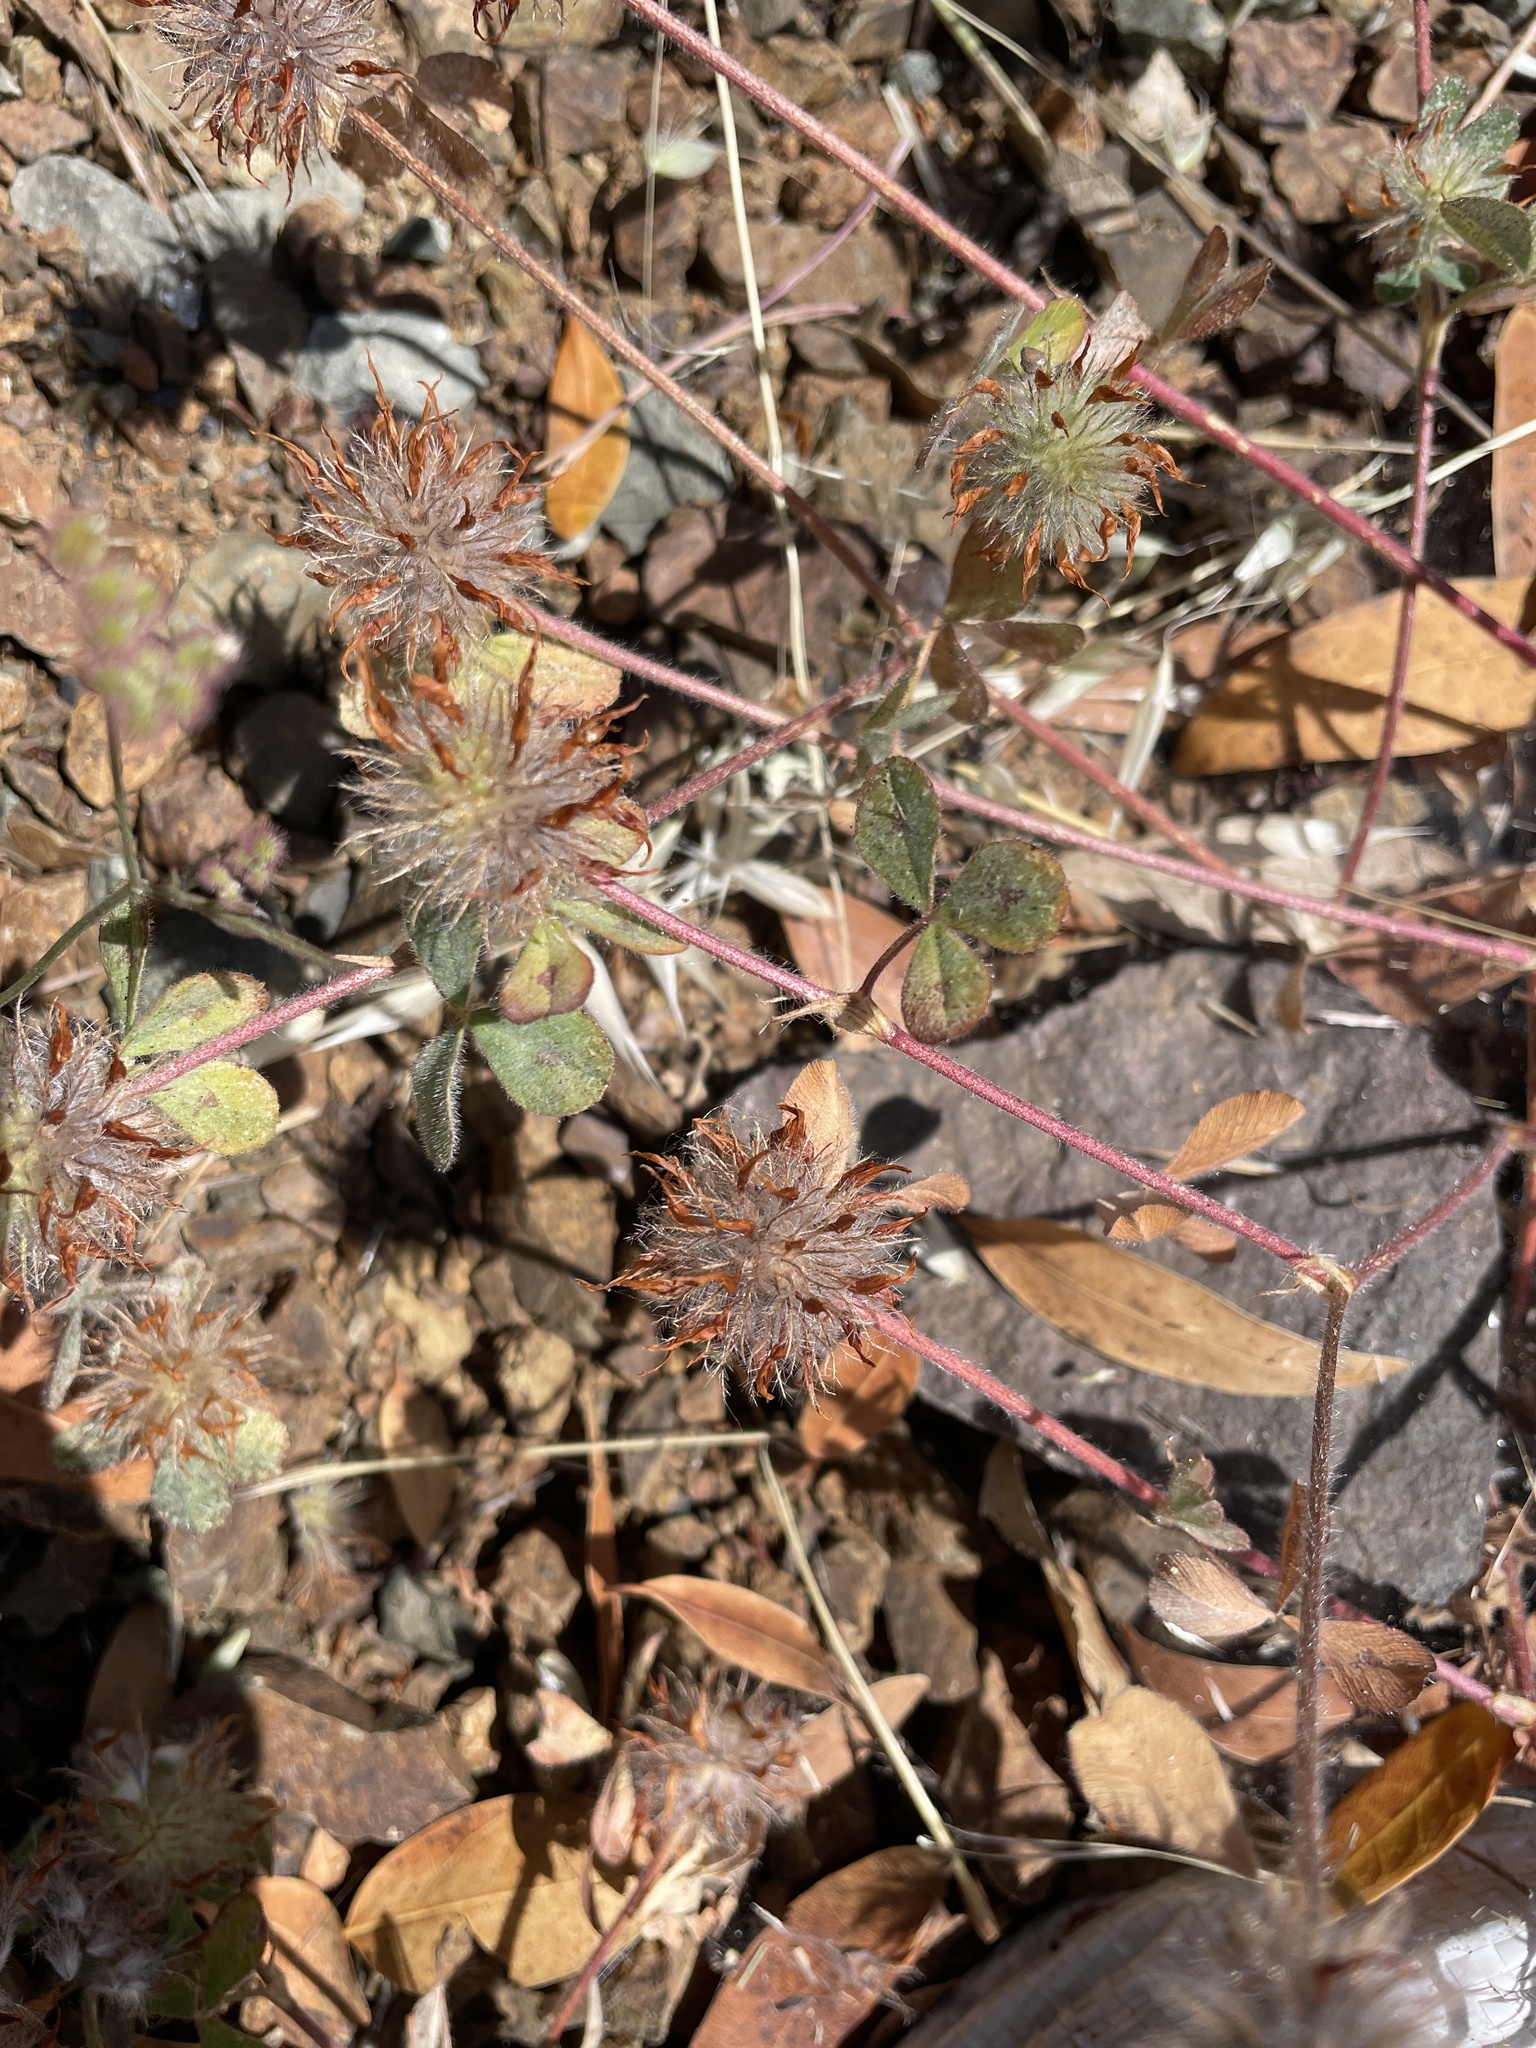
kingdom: Plantae
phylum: Tracheophyta
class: Magnoliopsida
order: Fabales
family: Fabaceae
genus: Trifolium
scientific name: Trifolium hirtum
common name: Rose clover
